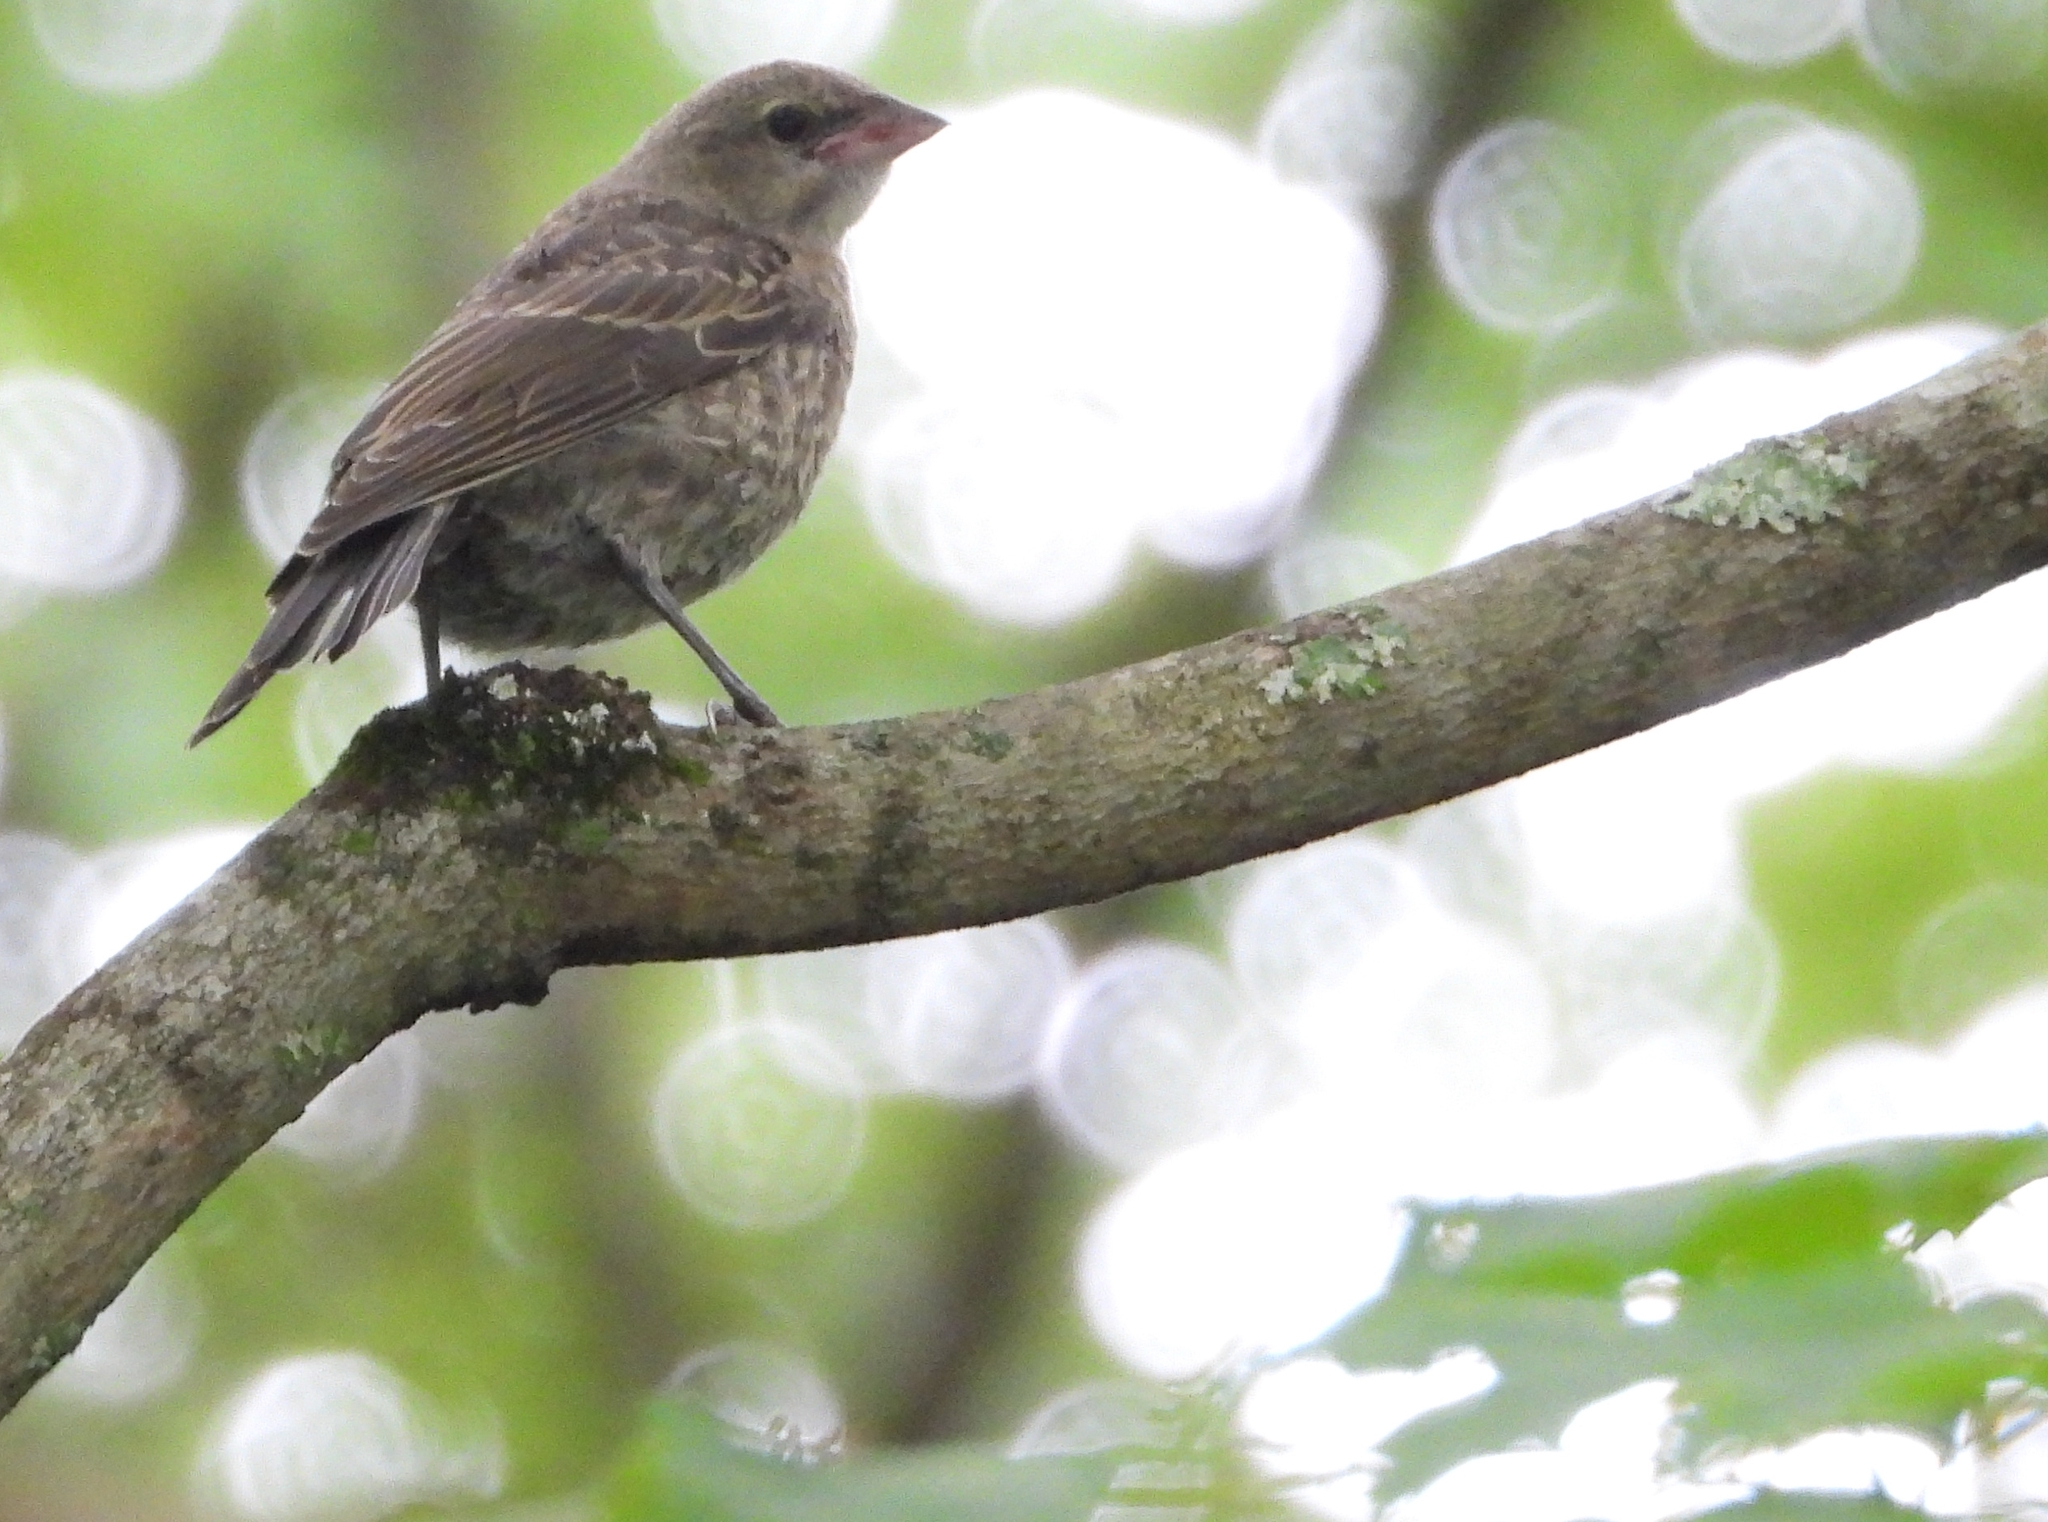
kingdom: Animalia
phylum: Chordata
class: Aves
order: Passeriformes
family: Icteridae
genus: Molothrus
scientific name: Molothrus ater
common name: Brown-headed cowbird
